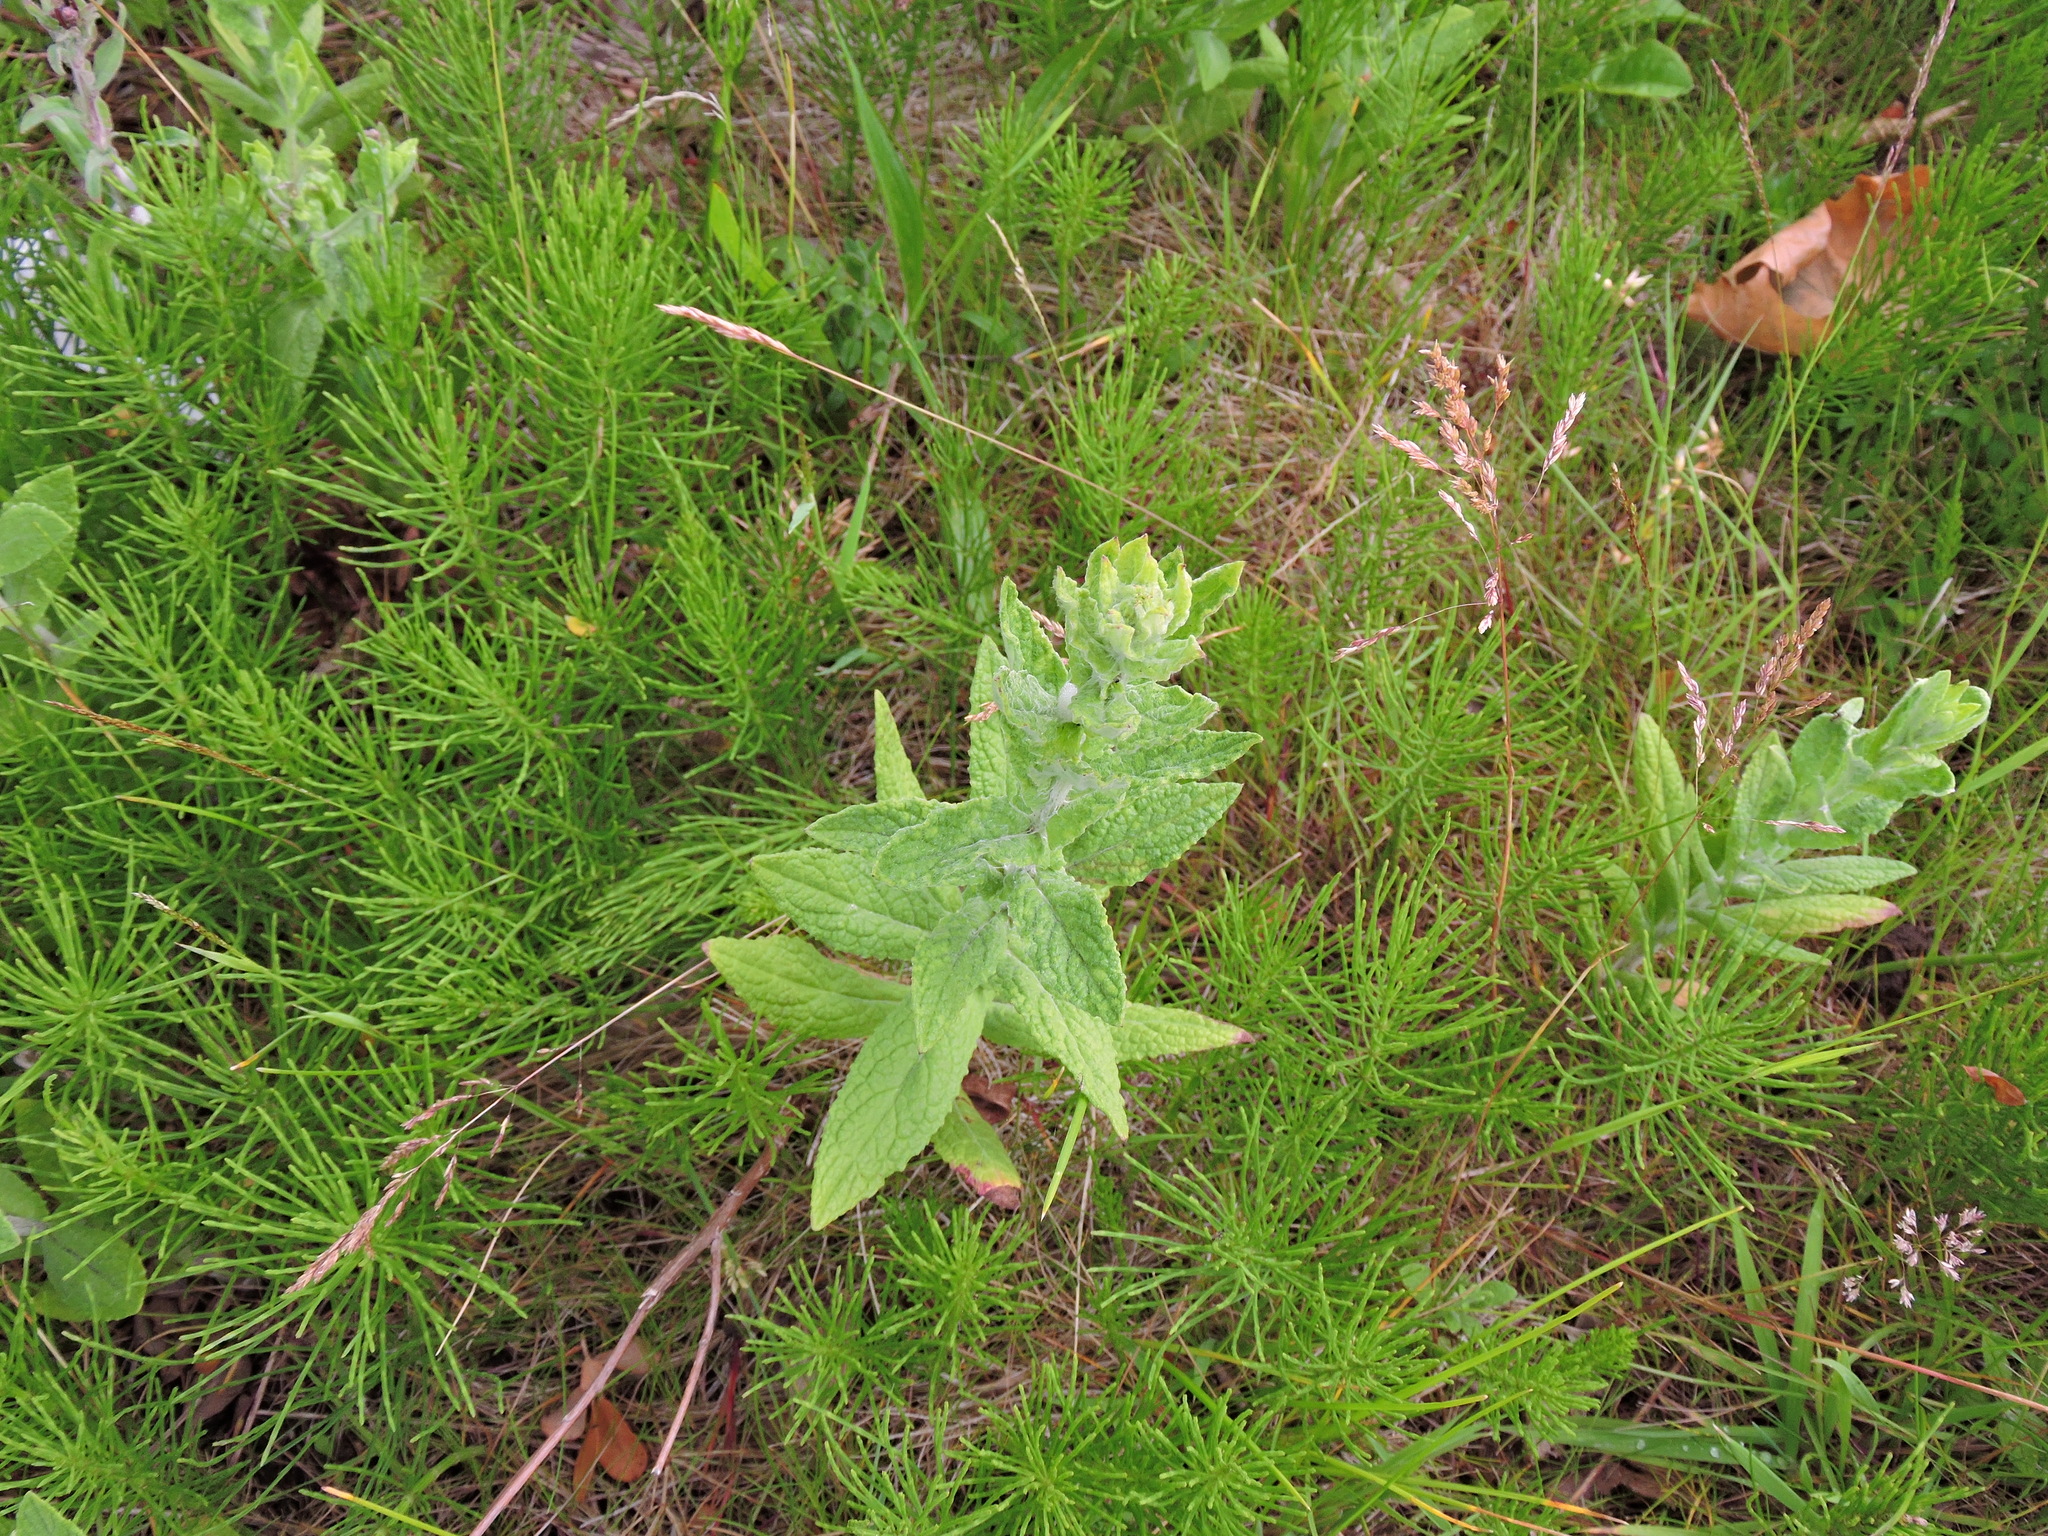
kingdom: Plantae
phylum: Tracheophyta
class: Magnoliopsida
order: Asterales
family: Asteraceae
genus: Pulicaria
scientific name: Pulicaria dysenterica
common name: Common fleabane
